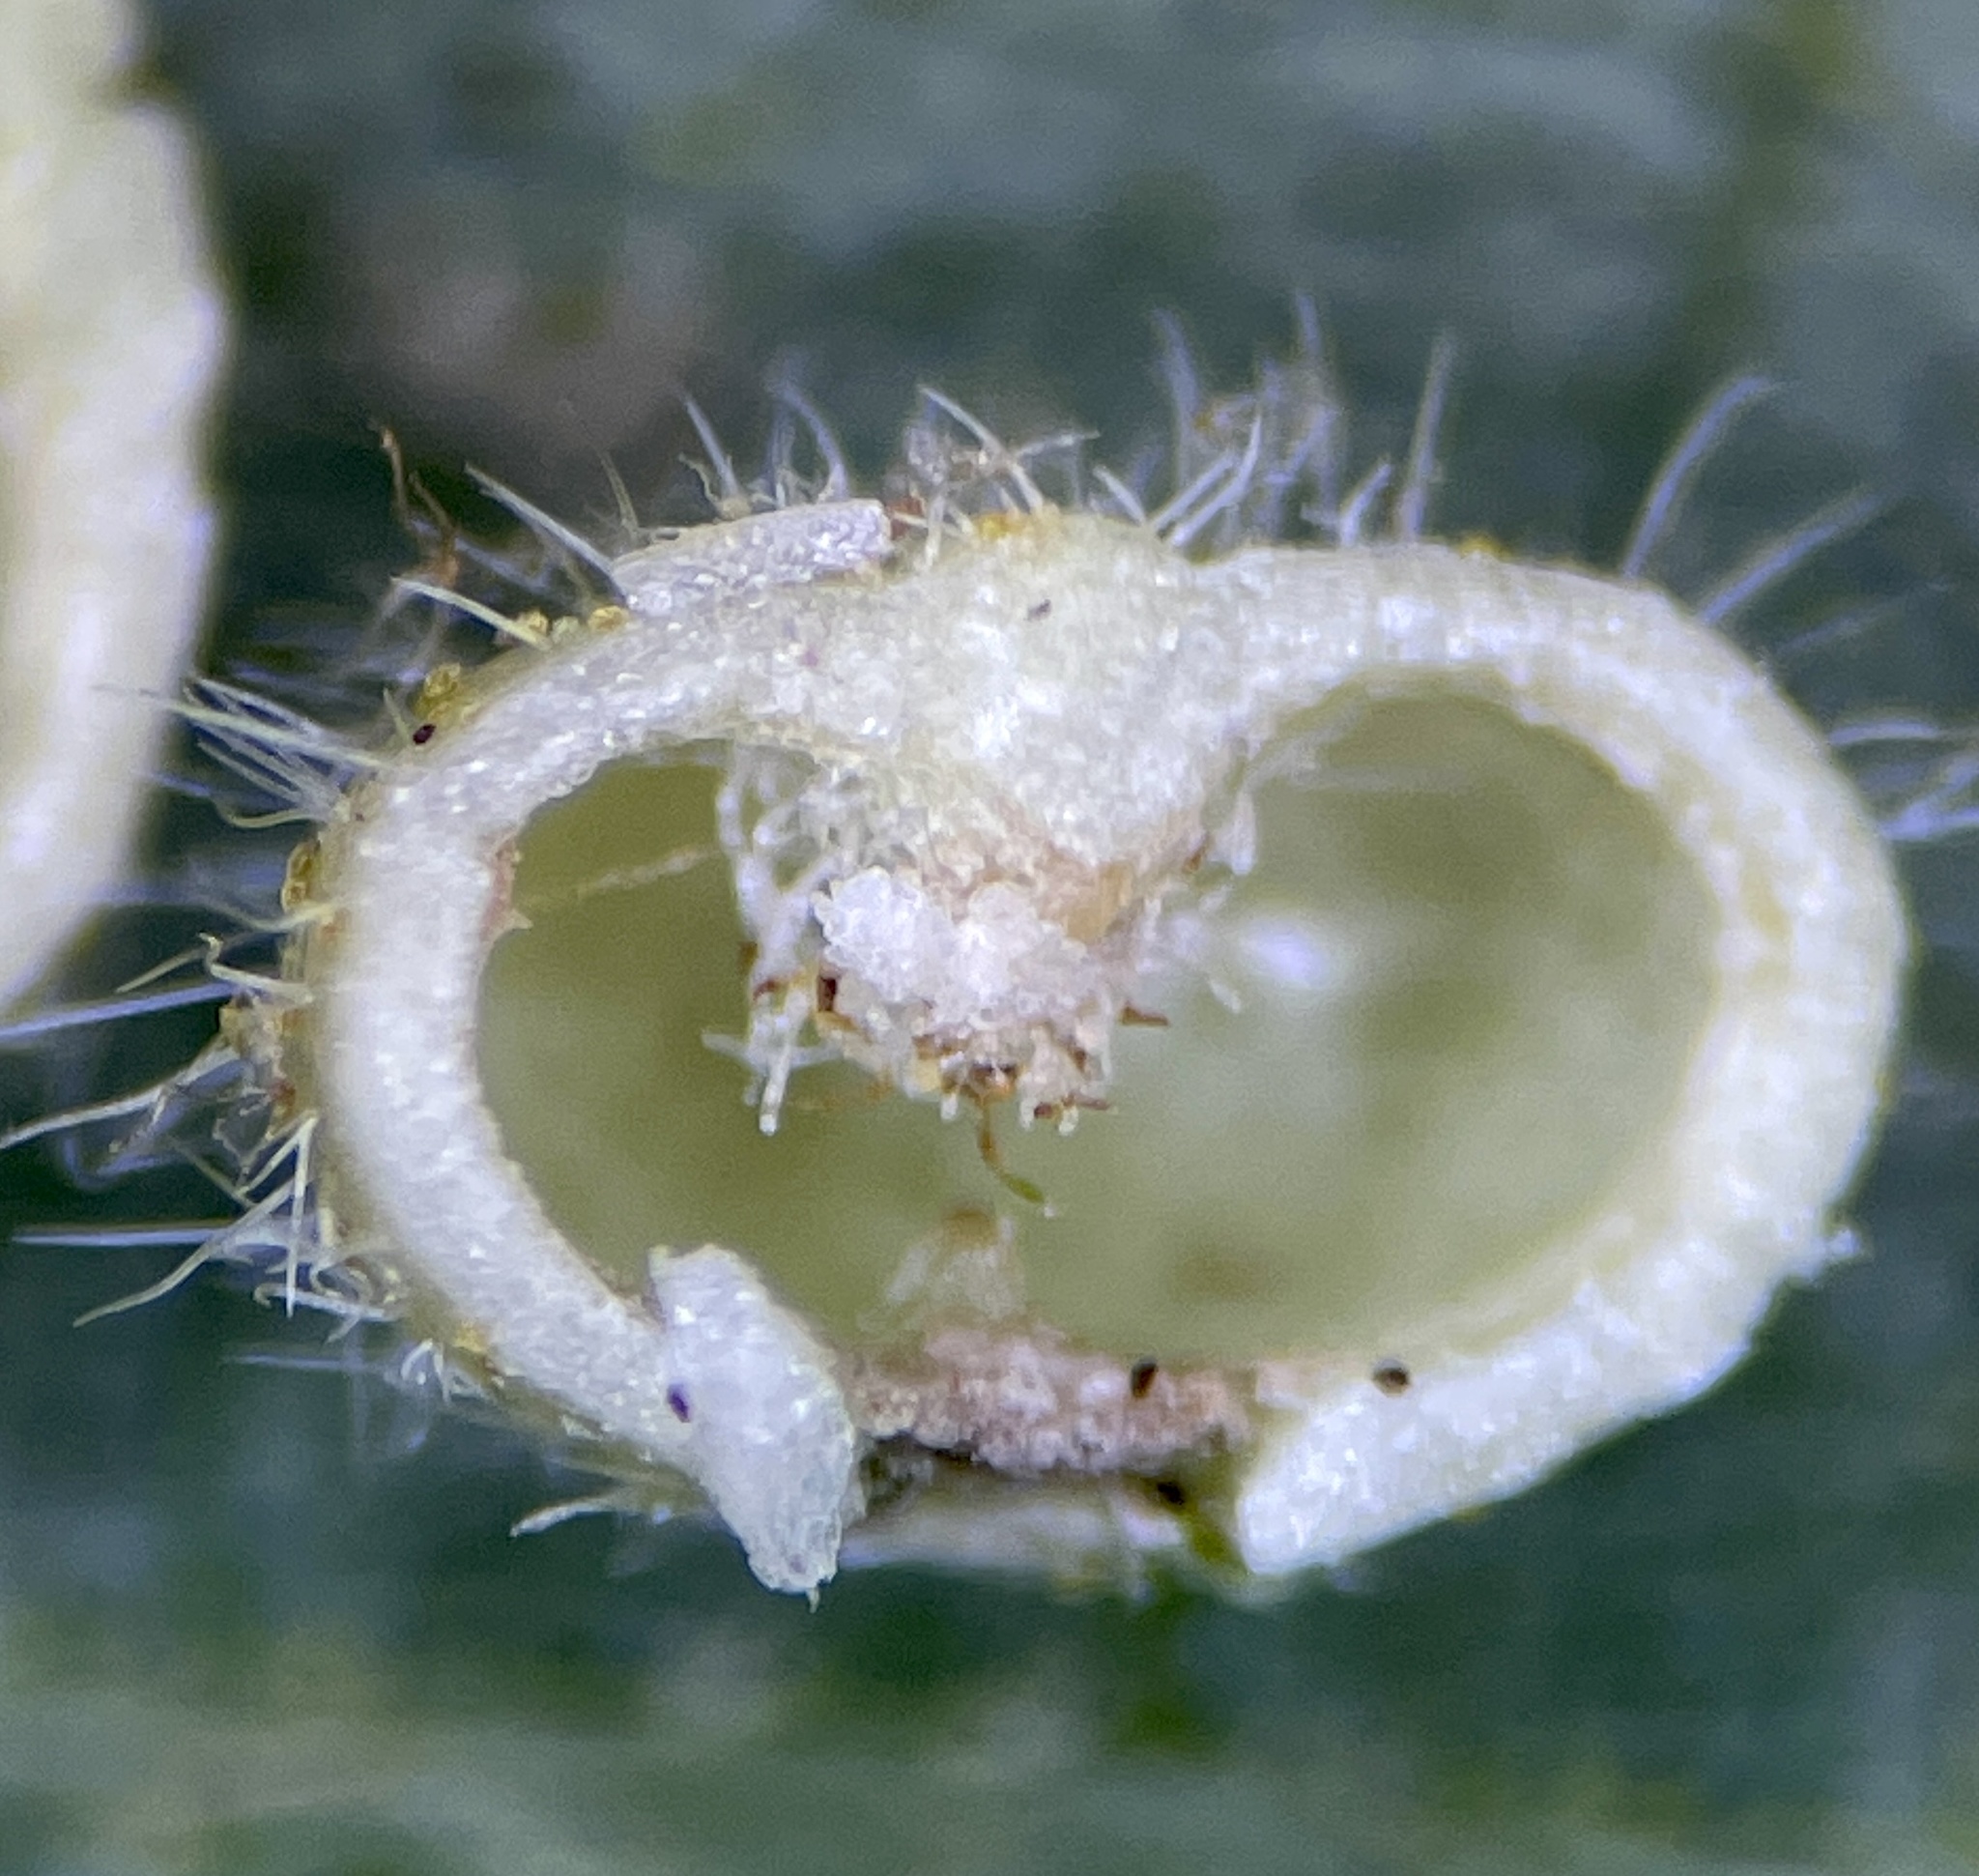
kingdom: Animalia
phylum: Arthropoda
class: Insecta
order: Diptera
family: Cecidomyiidae
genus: Caryomyia
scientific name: Caryomyia thompsoni
